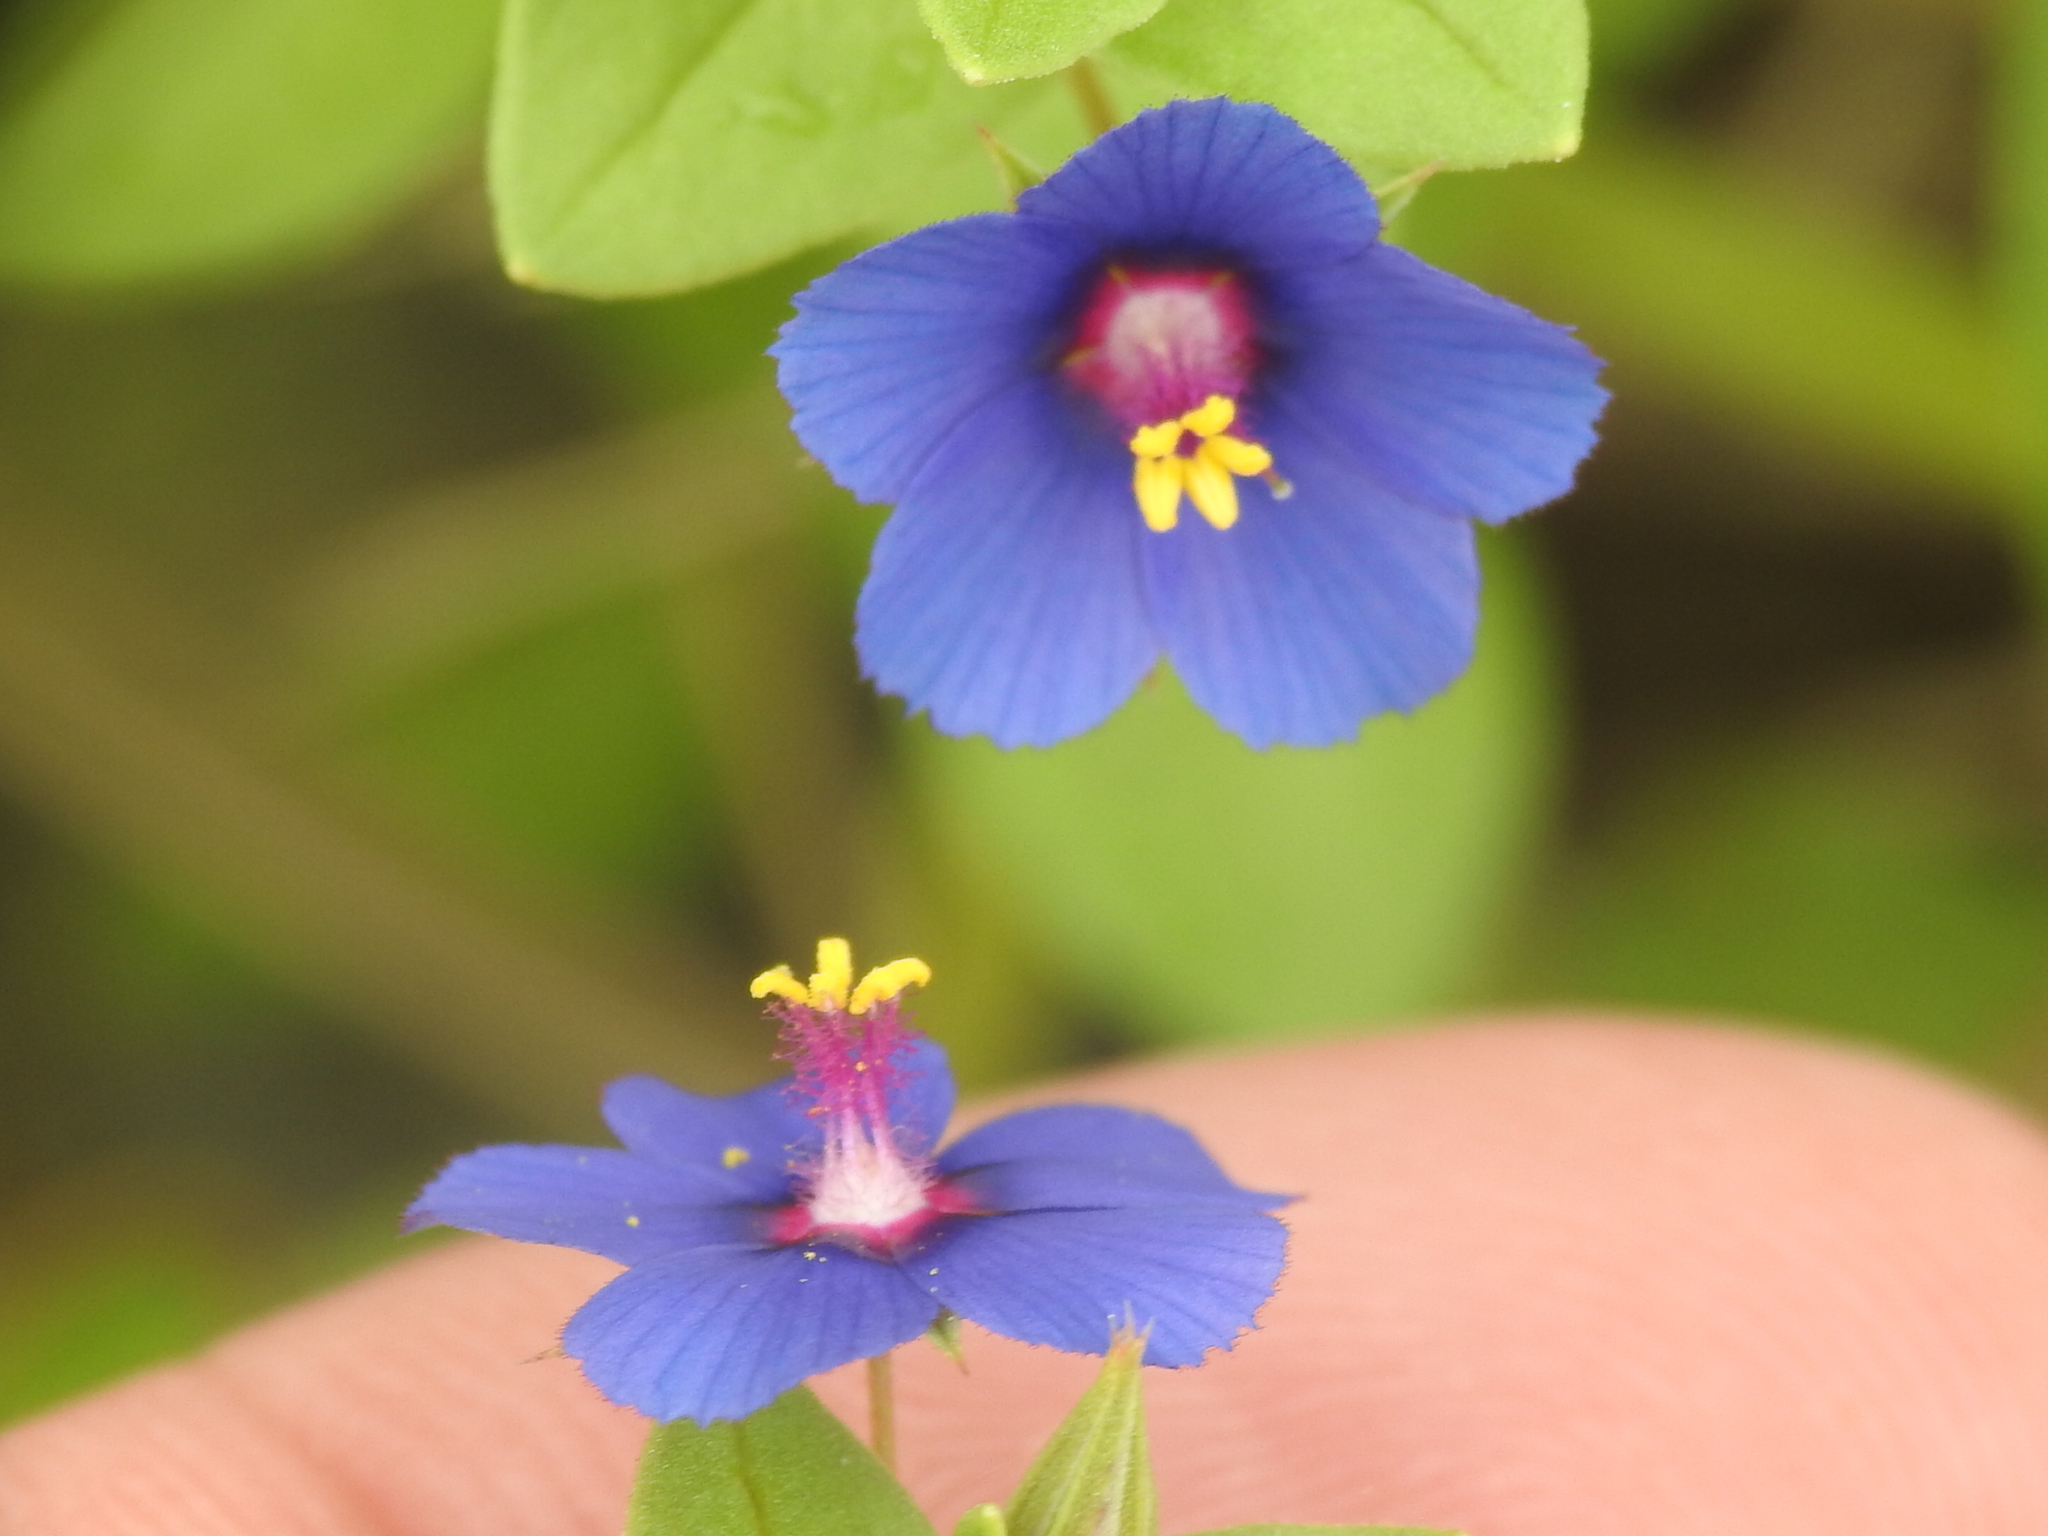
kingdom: Plantae
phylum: Tracheophyta
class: Magnoliopsida
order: Ericales
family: Primulaceae
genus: Lysimachia
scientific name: Lysimachia loeflingii
